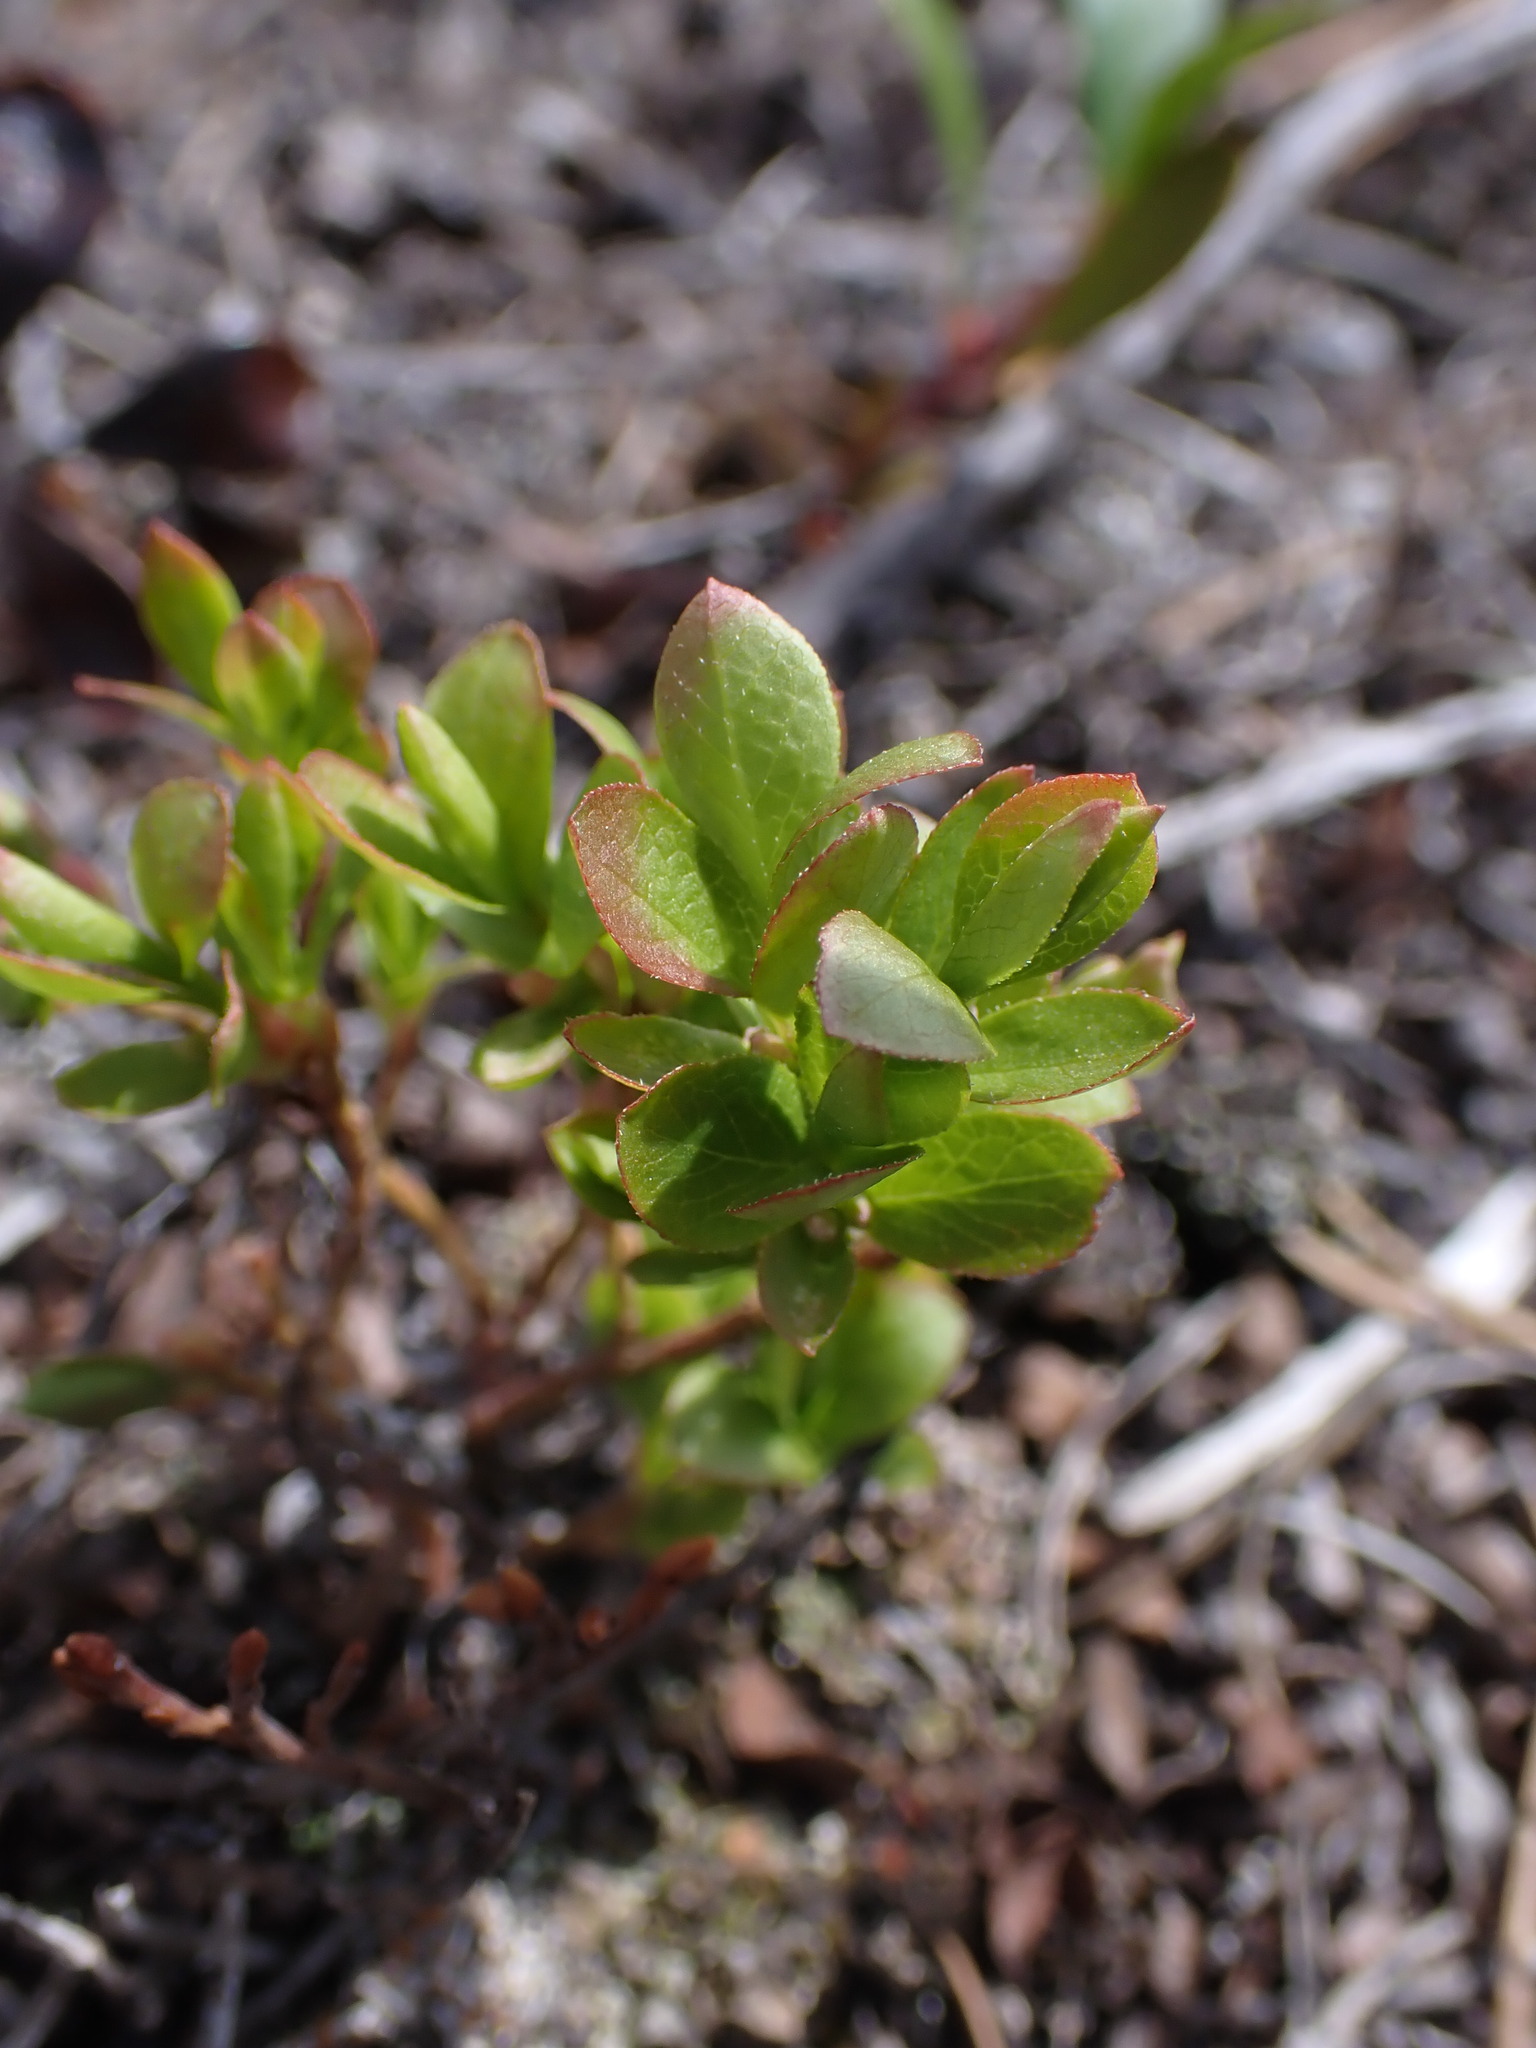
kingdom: Plantae
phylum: Tracheophyta
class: Magnoliopsida
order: Ericales
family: Ericaceae
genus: Vaccinium
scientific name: Vaccinium cespitosum
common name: Dwarf bilberry
